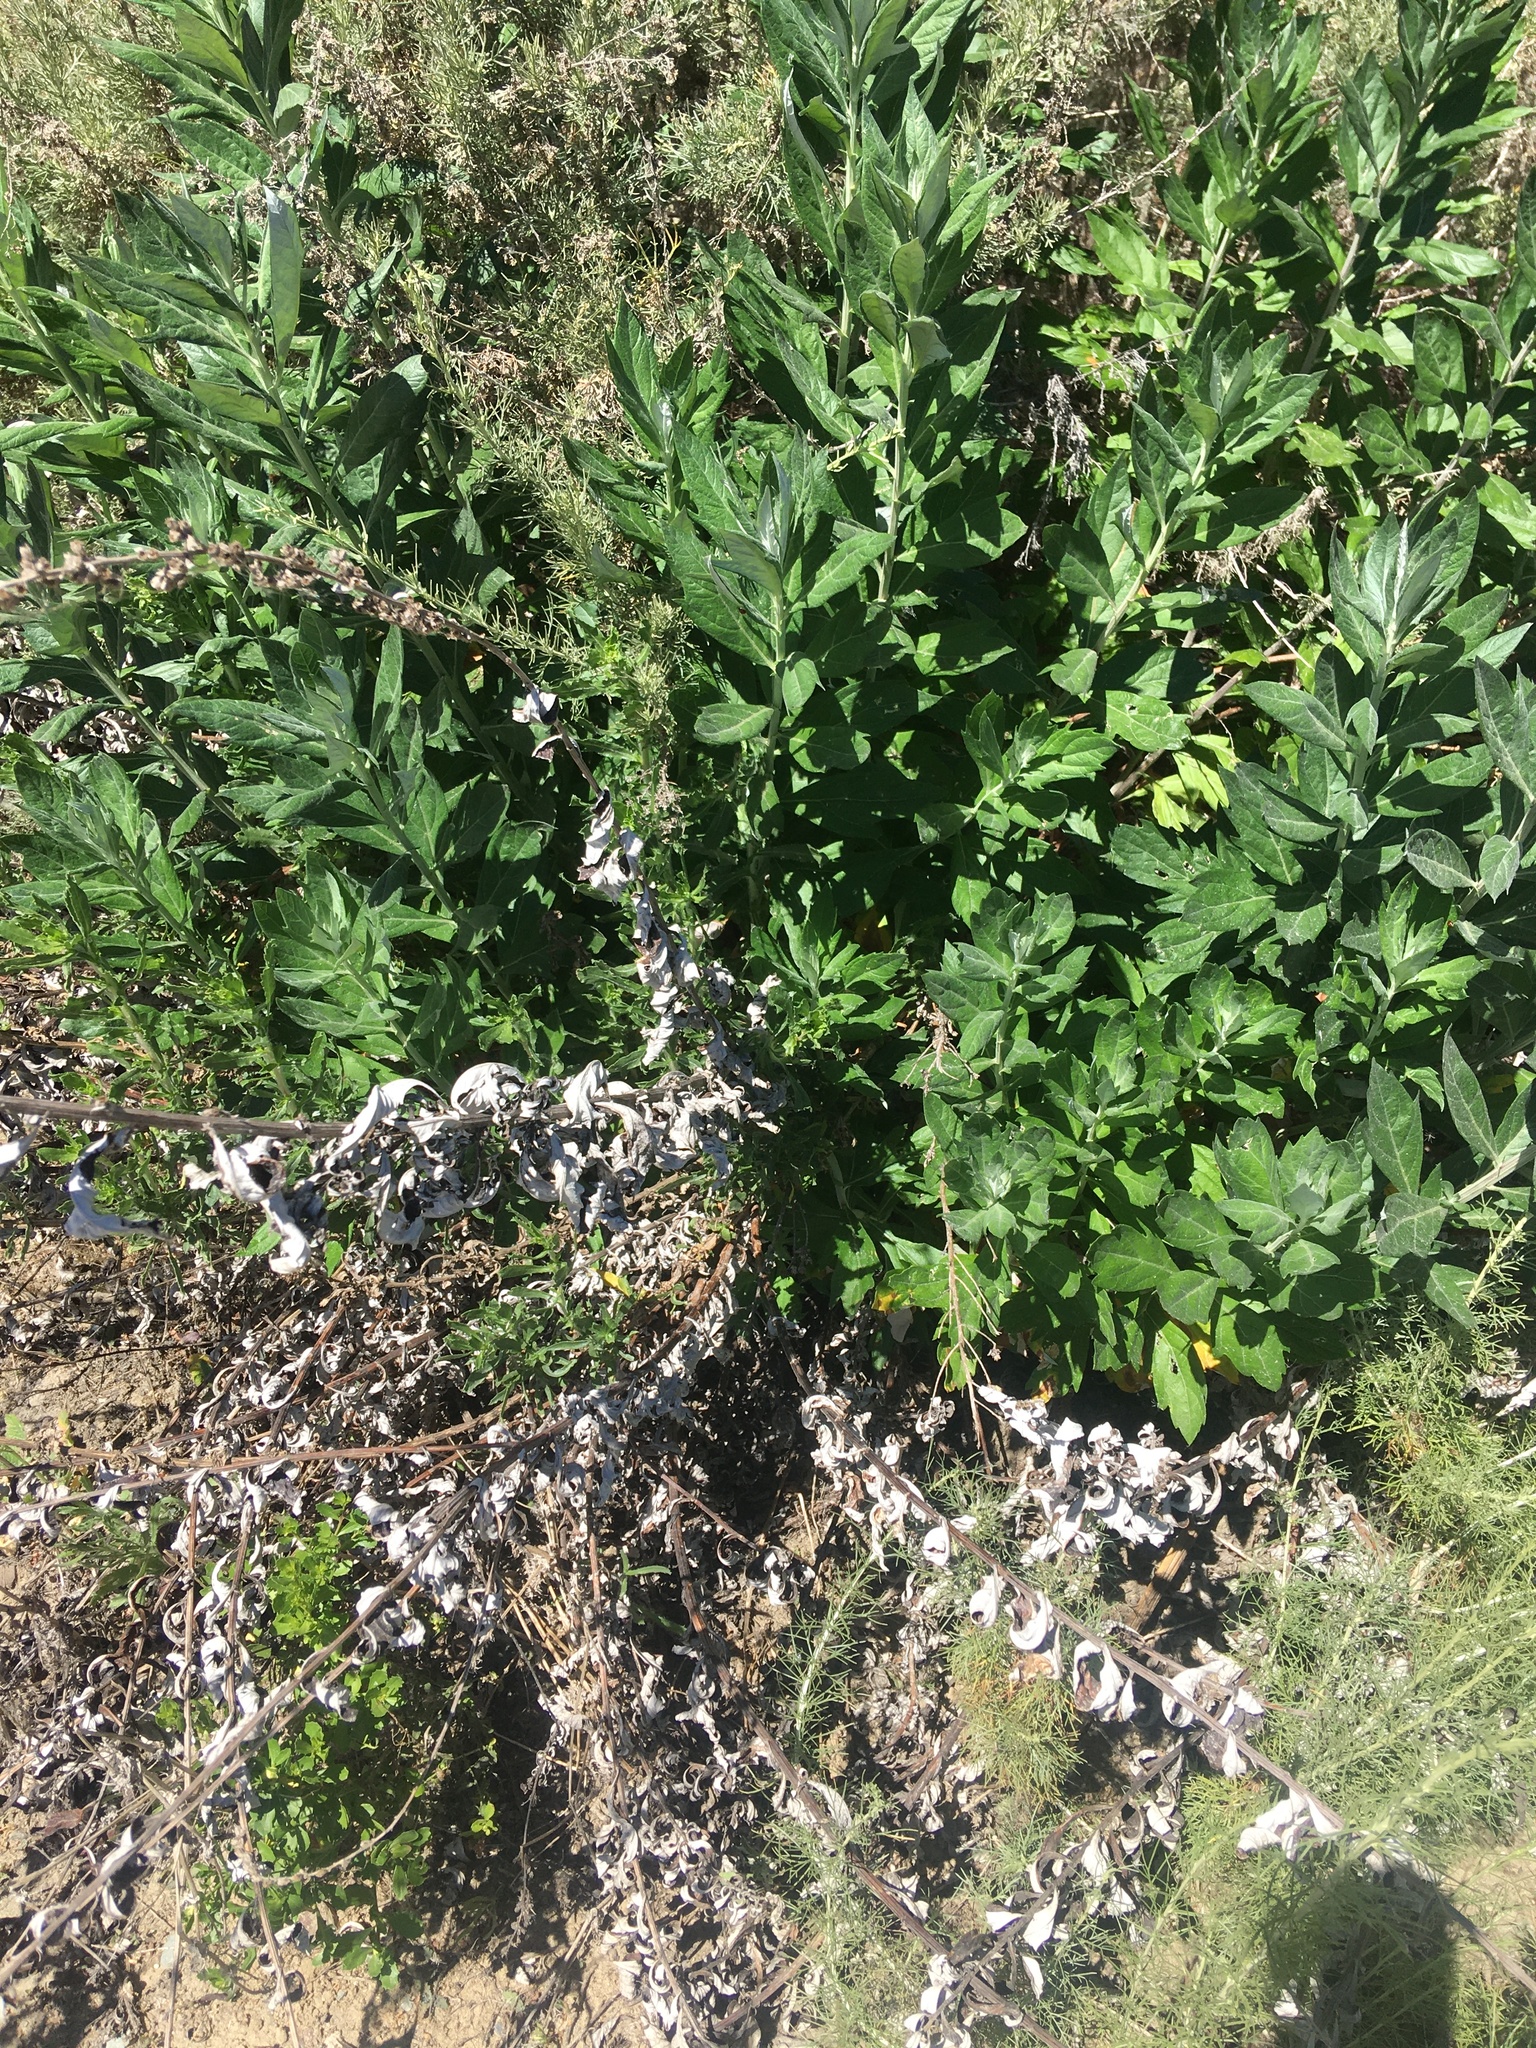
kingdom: Plantae
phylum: Tracheophyta
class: Magnoliopsida
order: Asterales
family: Asteraceae
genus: Artemisia
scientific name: Artemisia douglasiana
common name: Northwest mugwort
